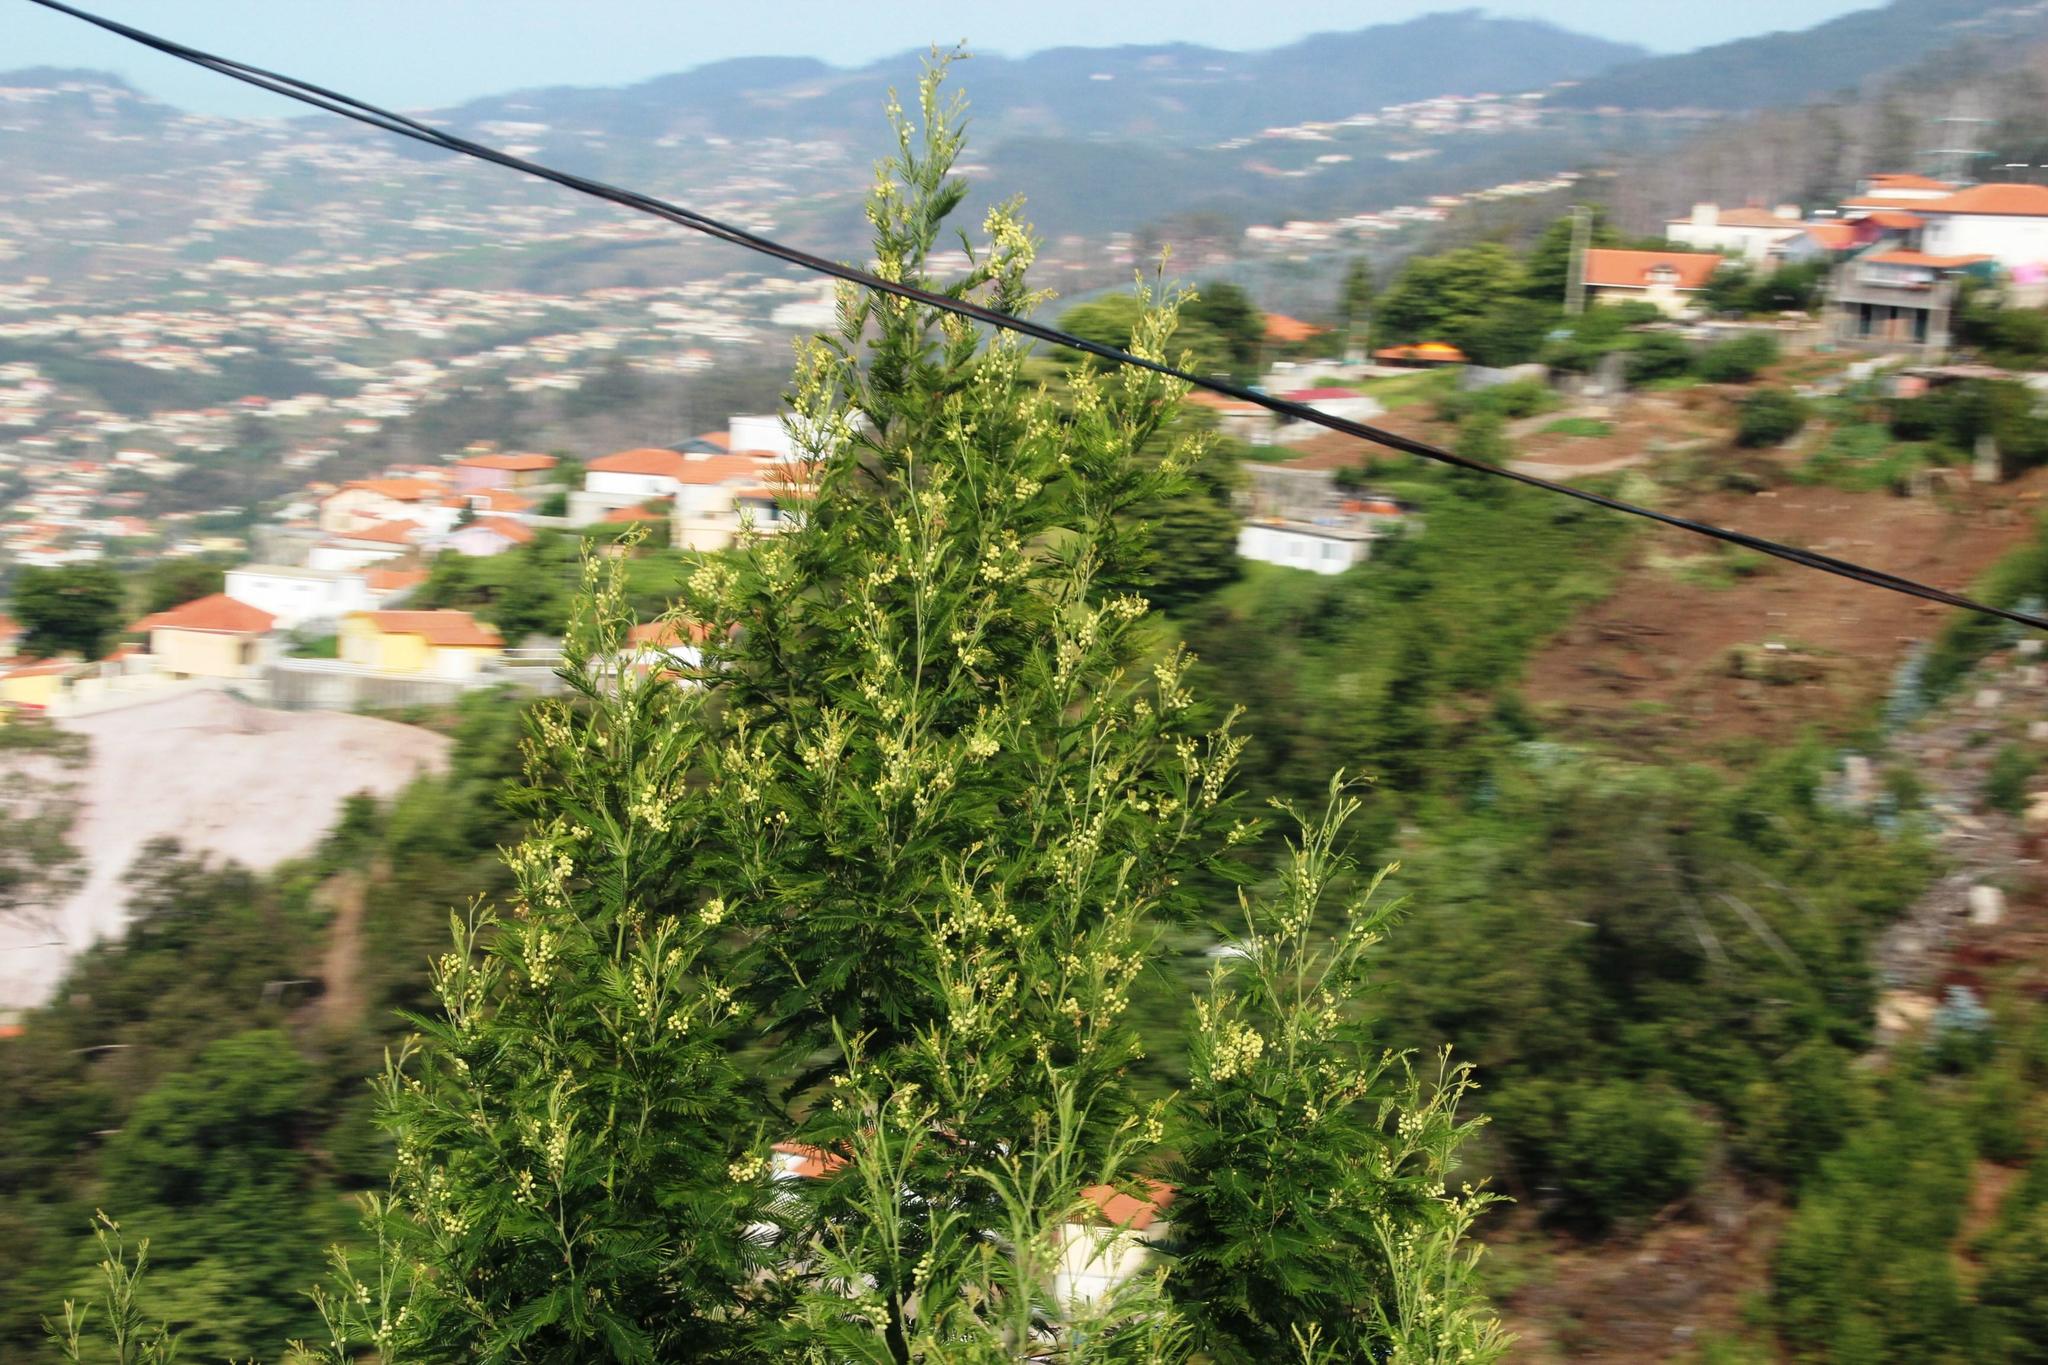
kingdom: Plantae
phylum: Tracheophyta
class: Magnoliopsida
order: Fabales
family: Fabaceae
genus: Acacia
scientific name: Acacia mearnsii
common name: Black wattle
